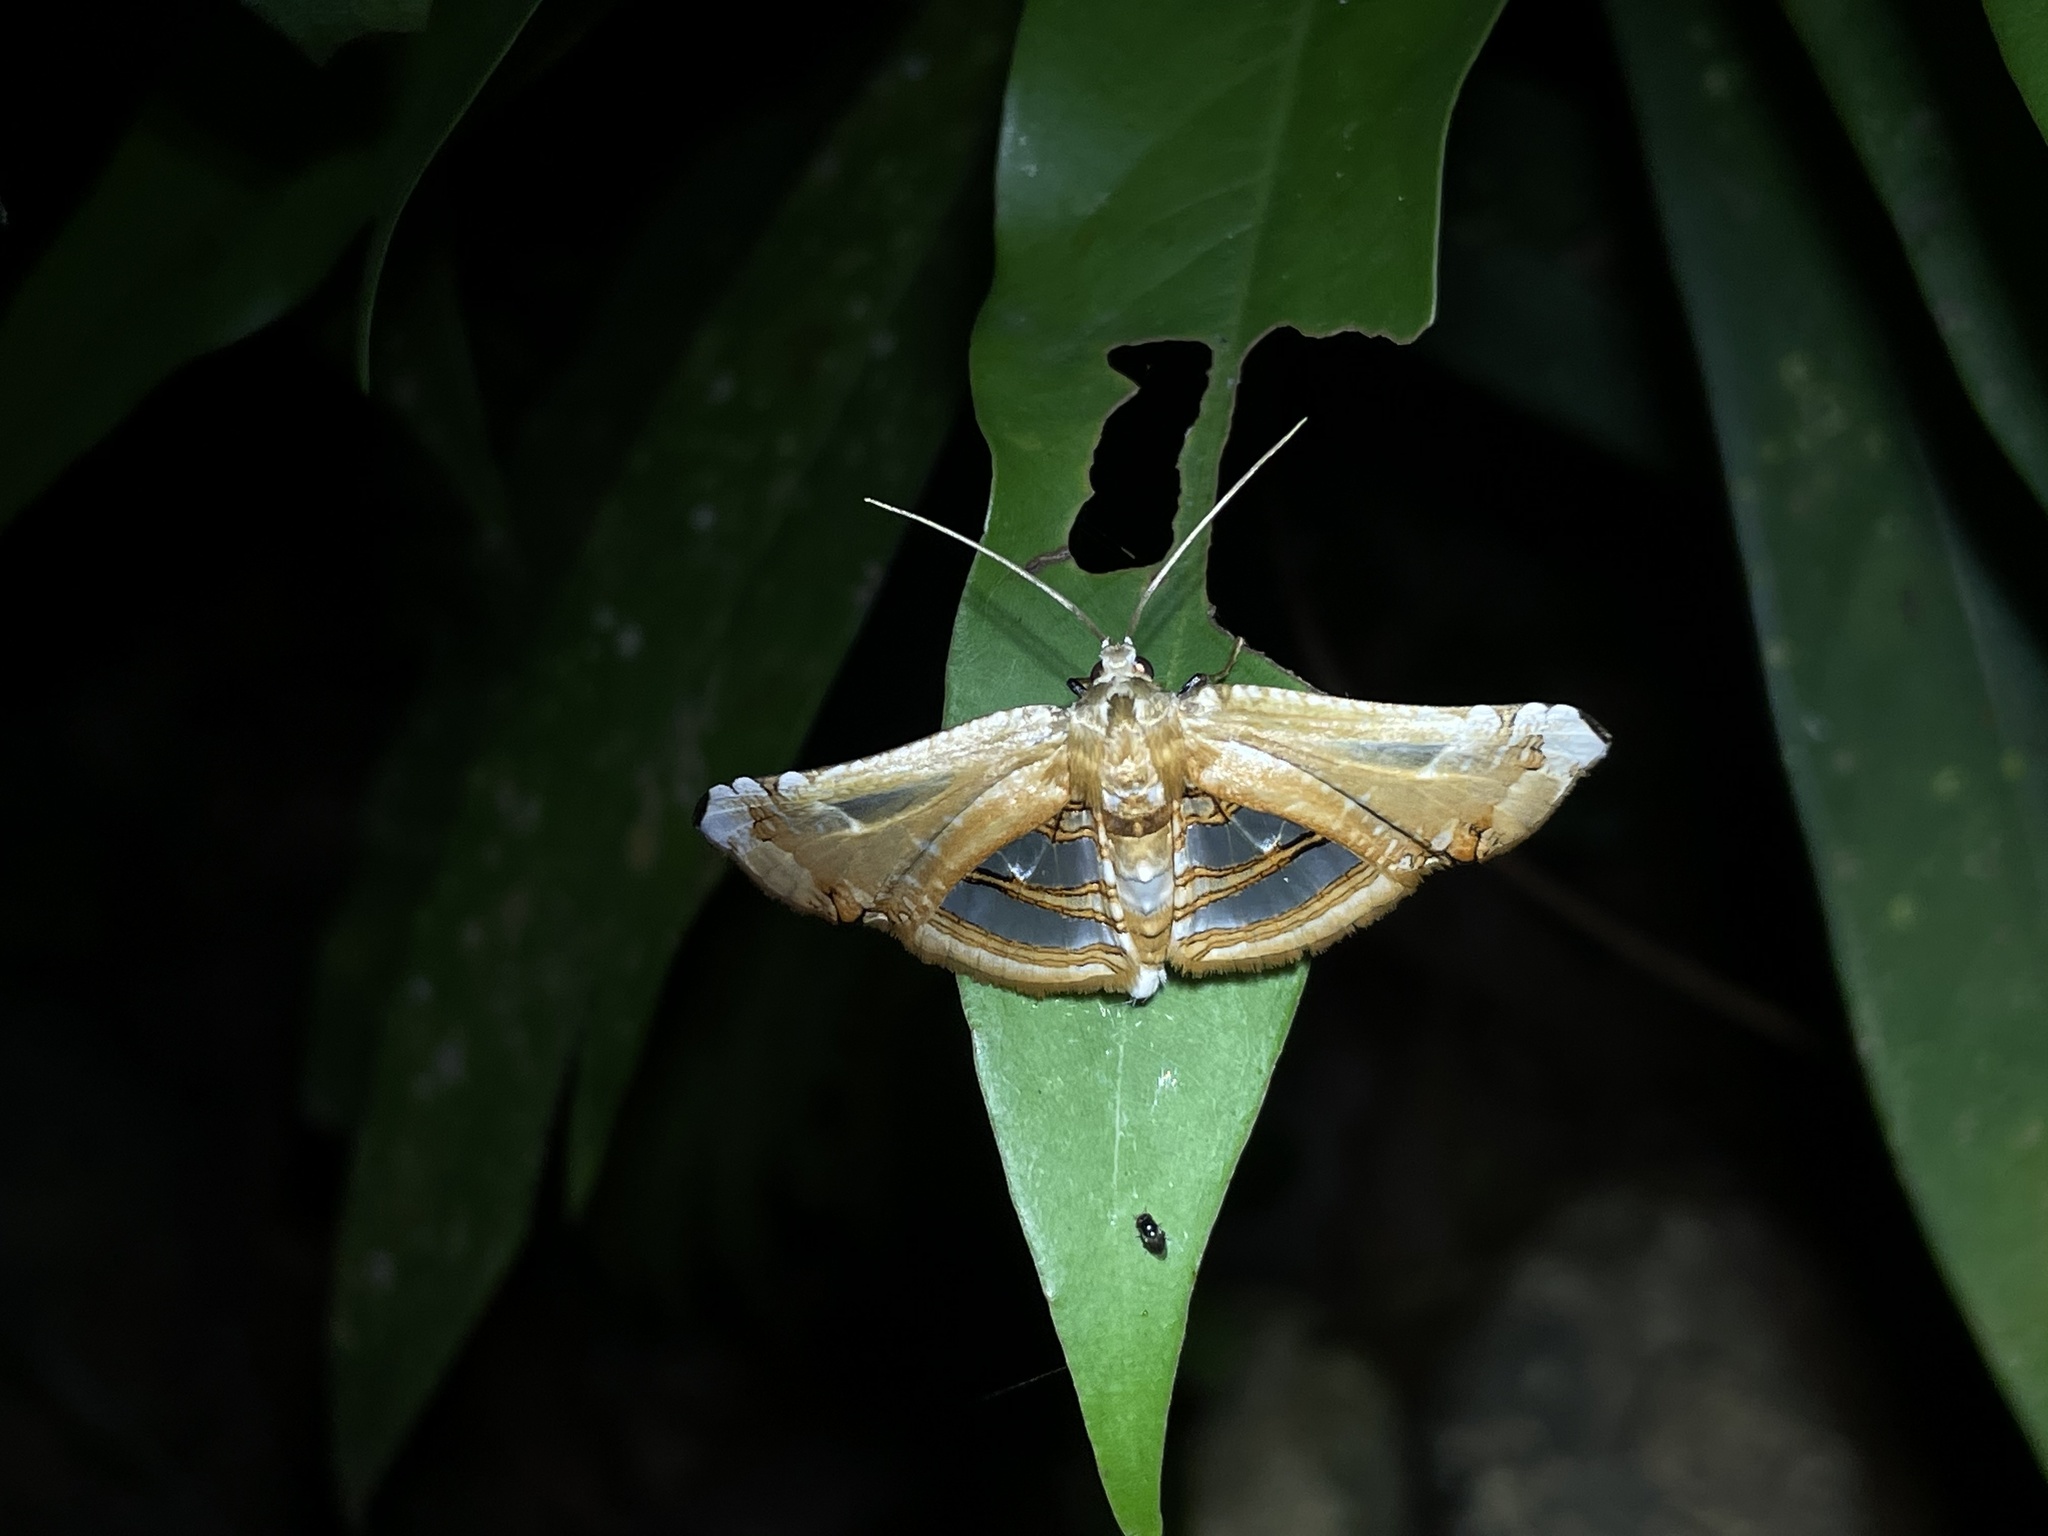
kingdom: Animalia
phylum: Arthropoda
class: Insecta
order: Lepidoptera
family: Thyrididae
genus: Herdonia
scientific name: Herdonia hainanensis
